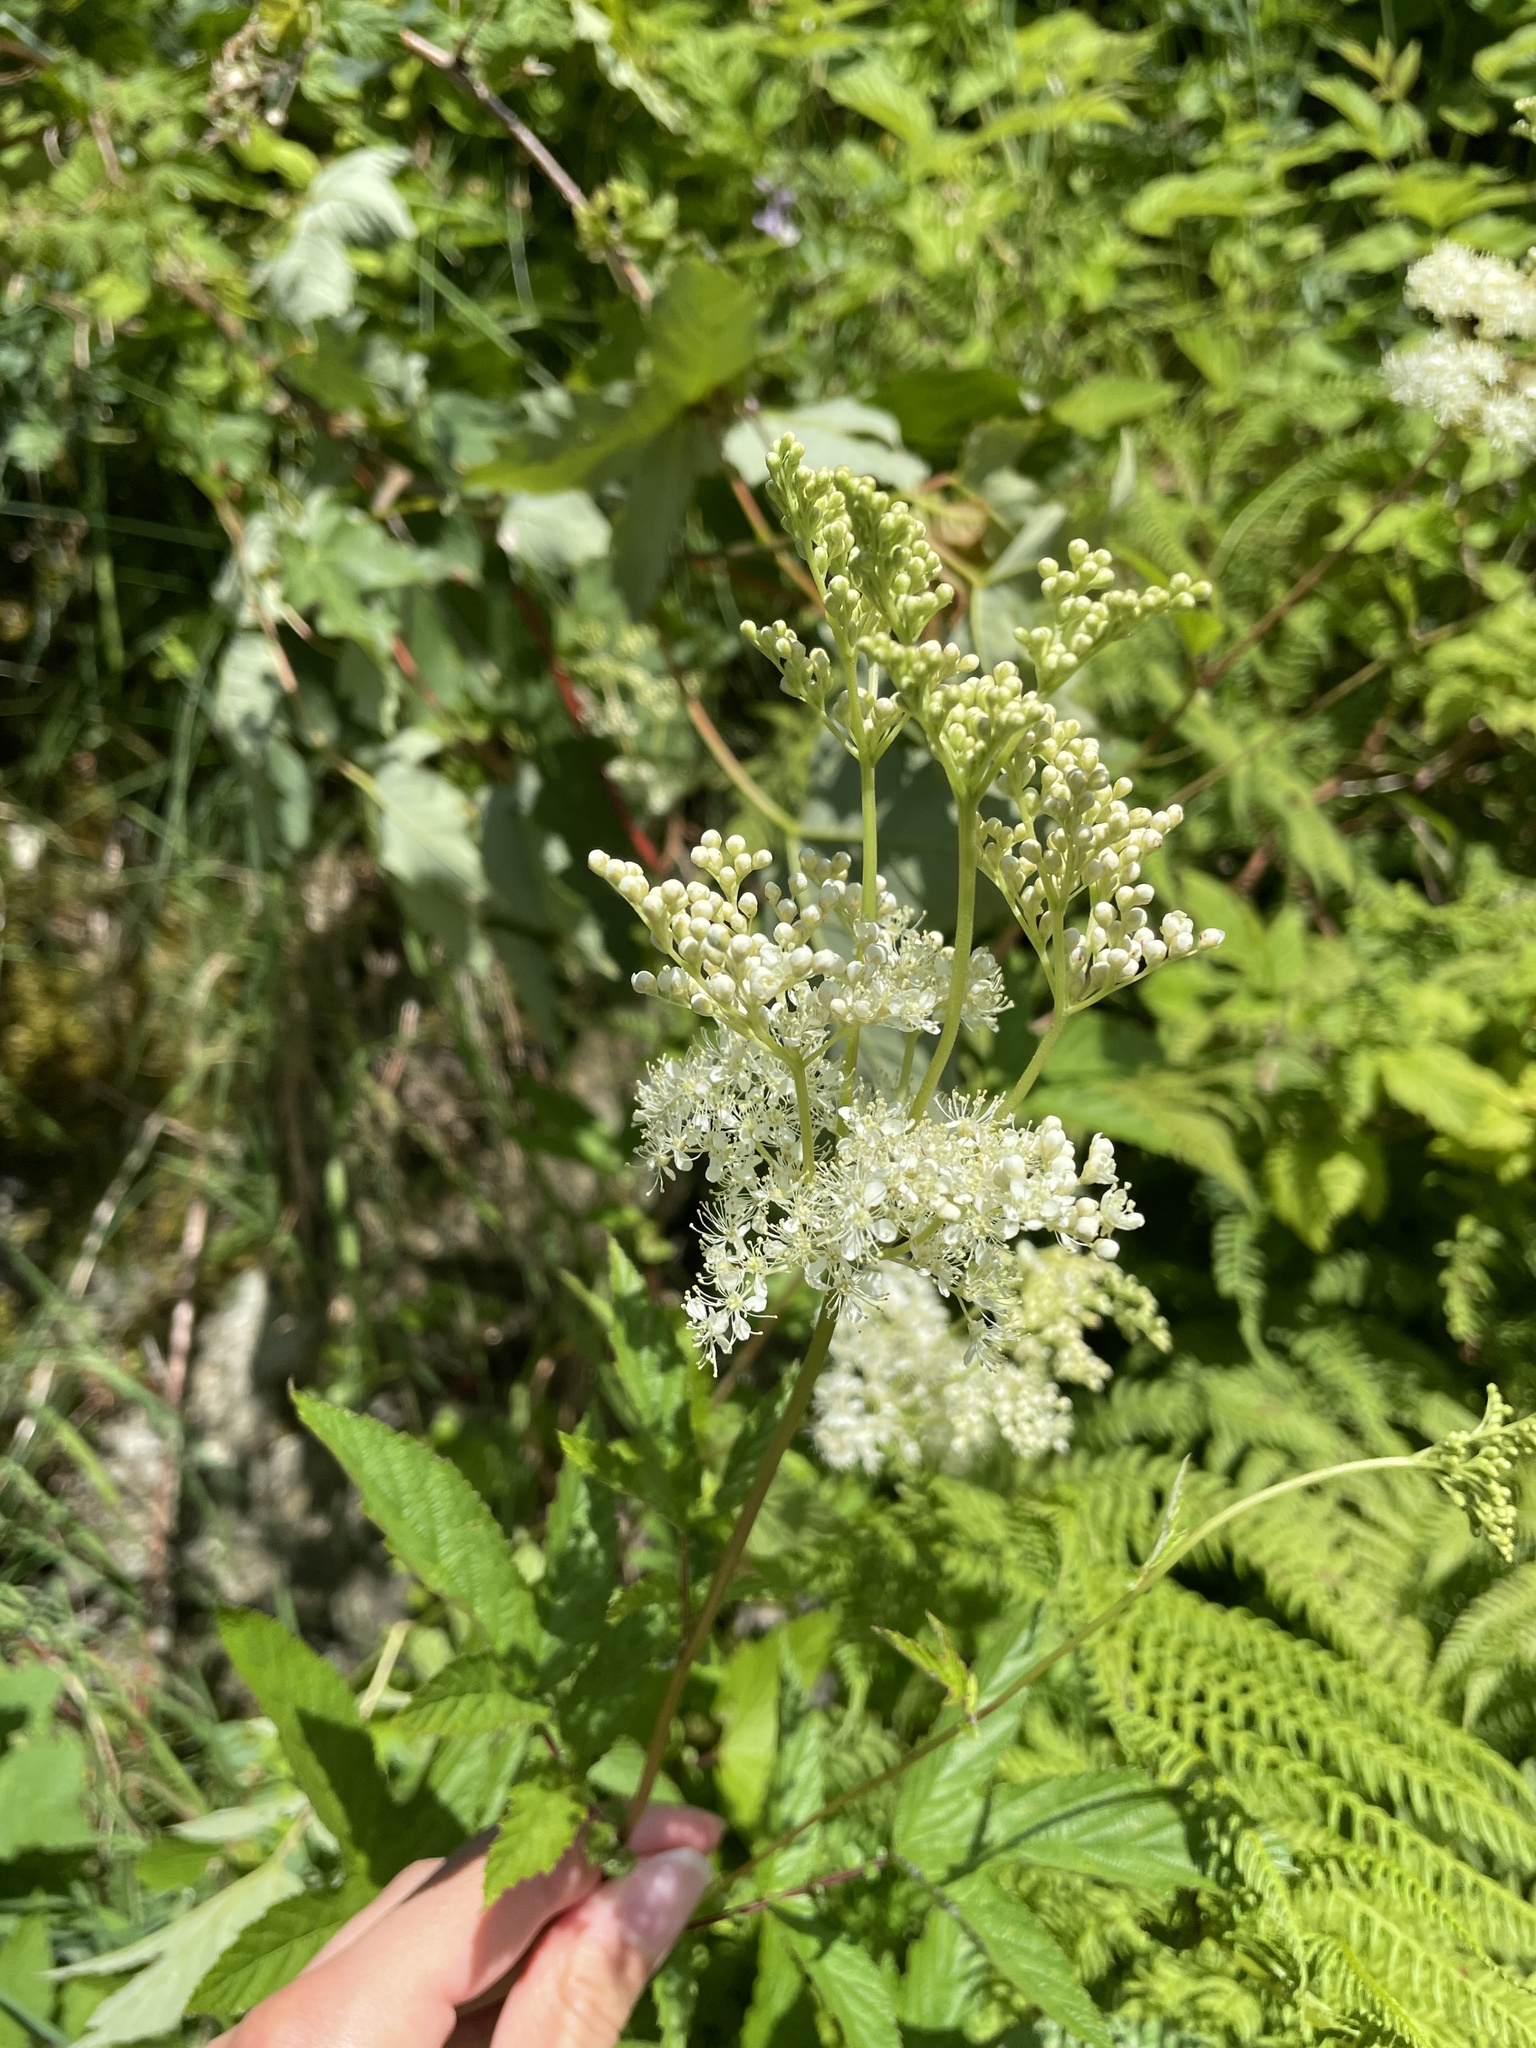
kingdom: Plantae
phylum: Tracheophyta
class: Magnoliopsida
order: Rosales
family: Rosaceae
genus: Filipendula
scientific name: Filipendula ulmaria
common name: Meadowsweet
